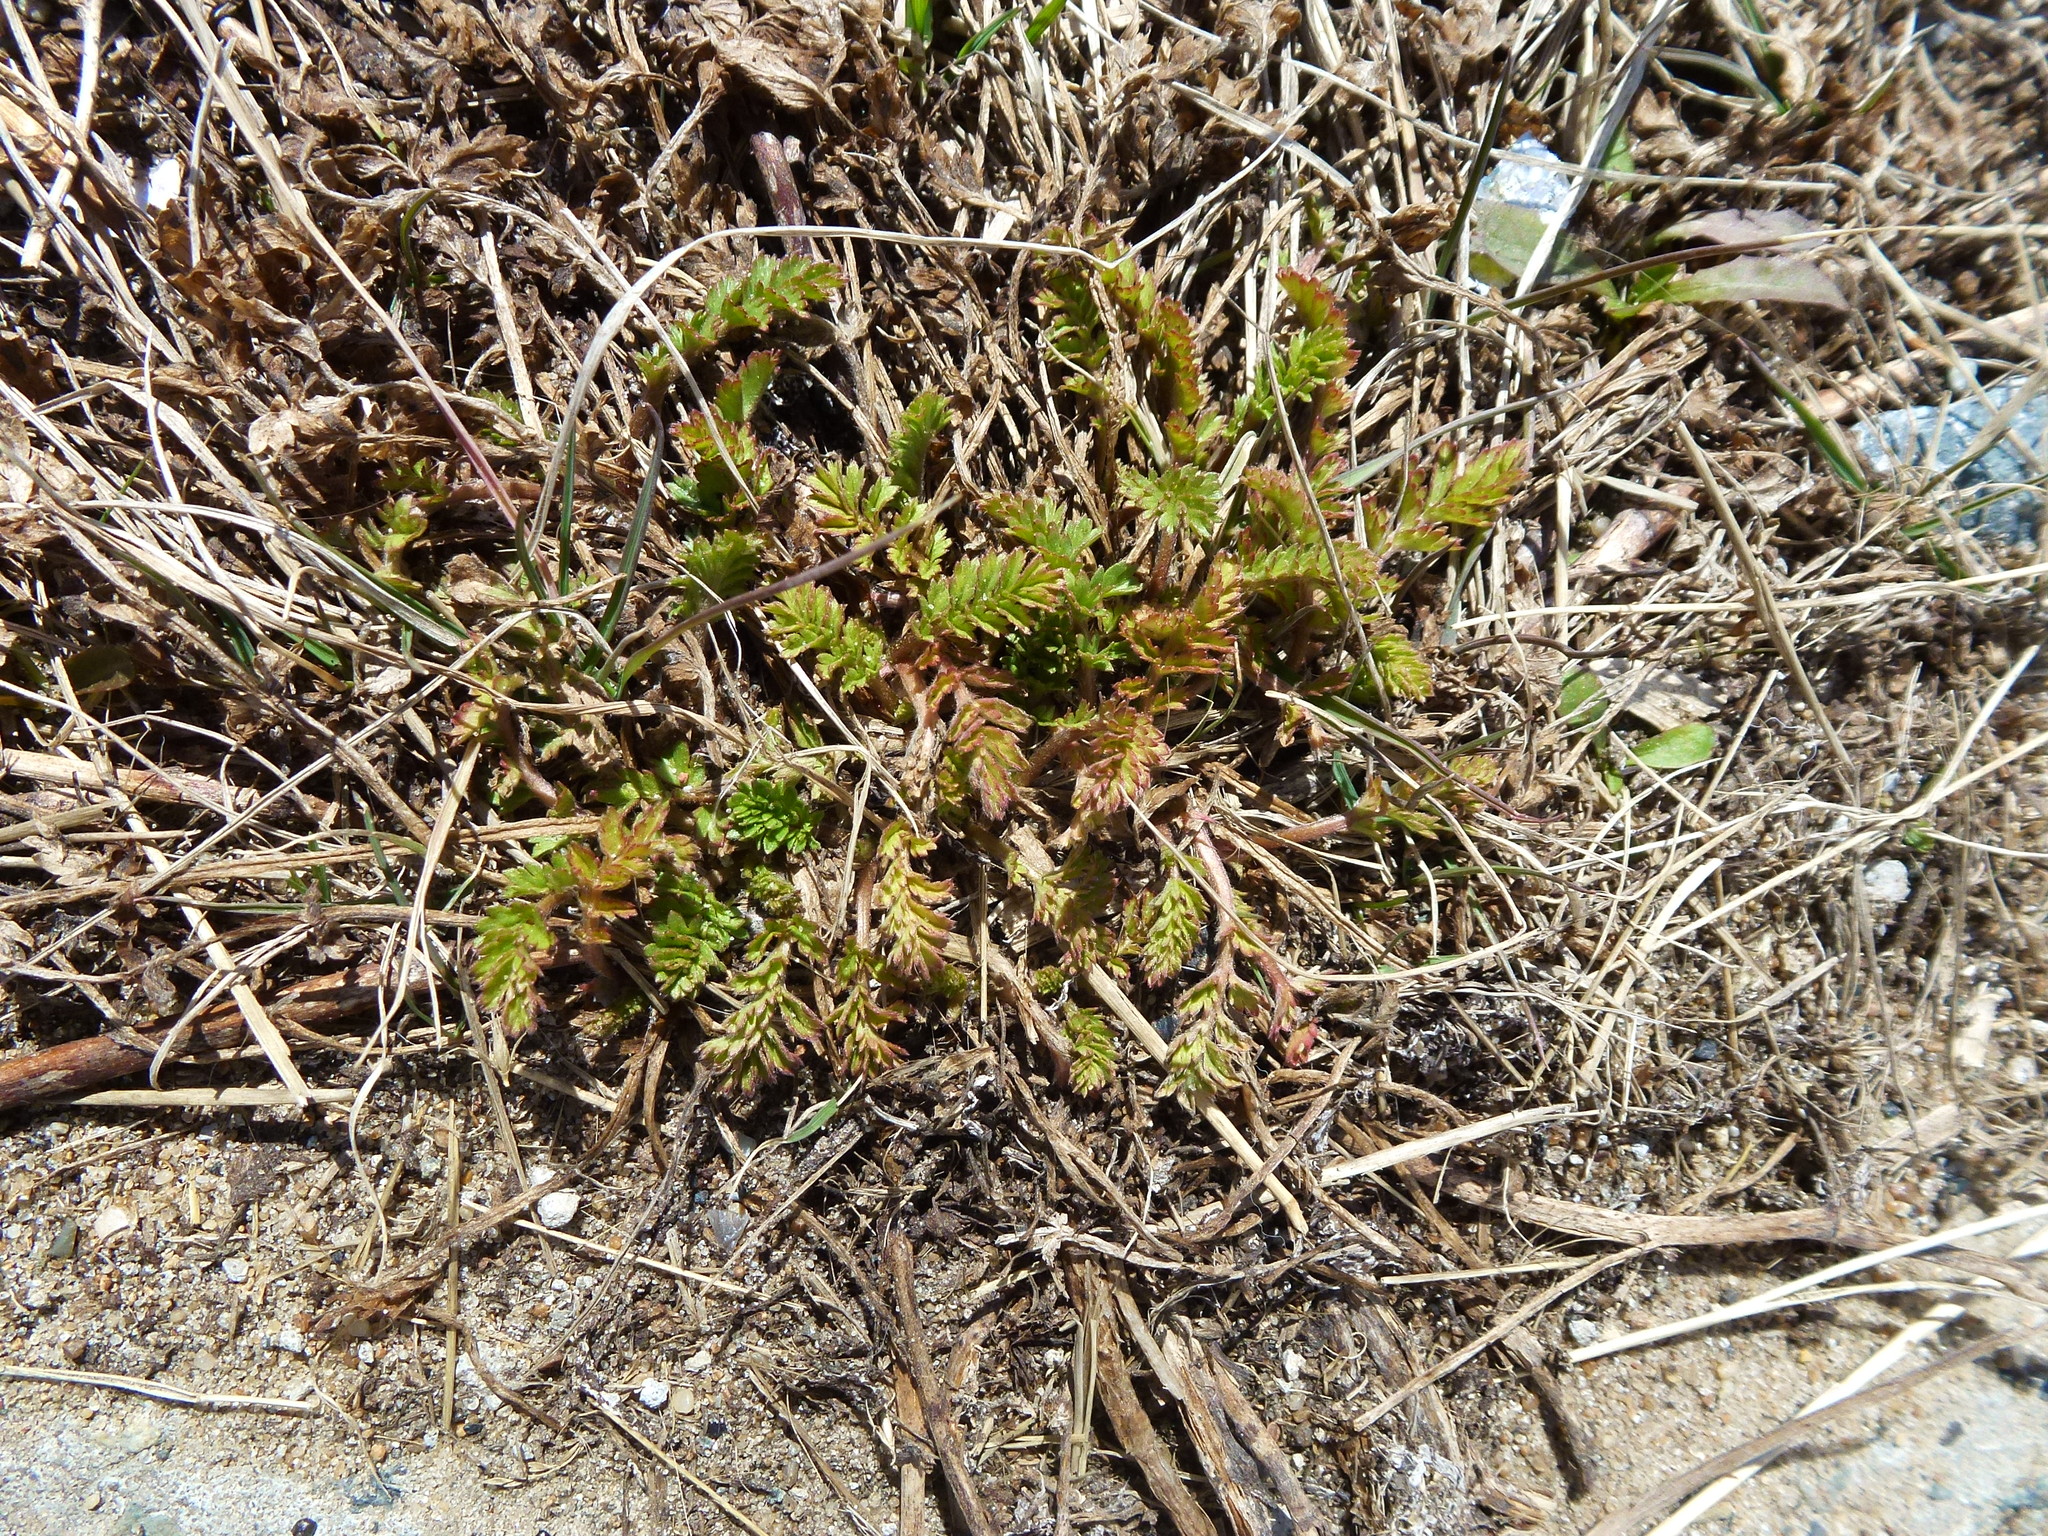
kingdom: Plantae
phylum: Tracheophyta
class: Magnoliopsida
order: Rosales
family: Rosaceae
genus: Potentilla
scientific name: Potentilla supina
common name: Prostrate cinquefoil
